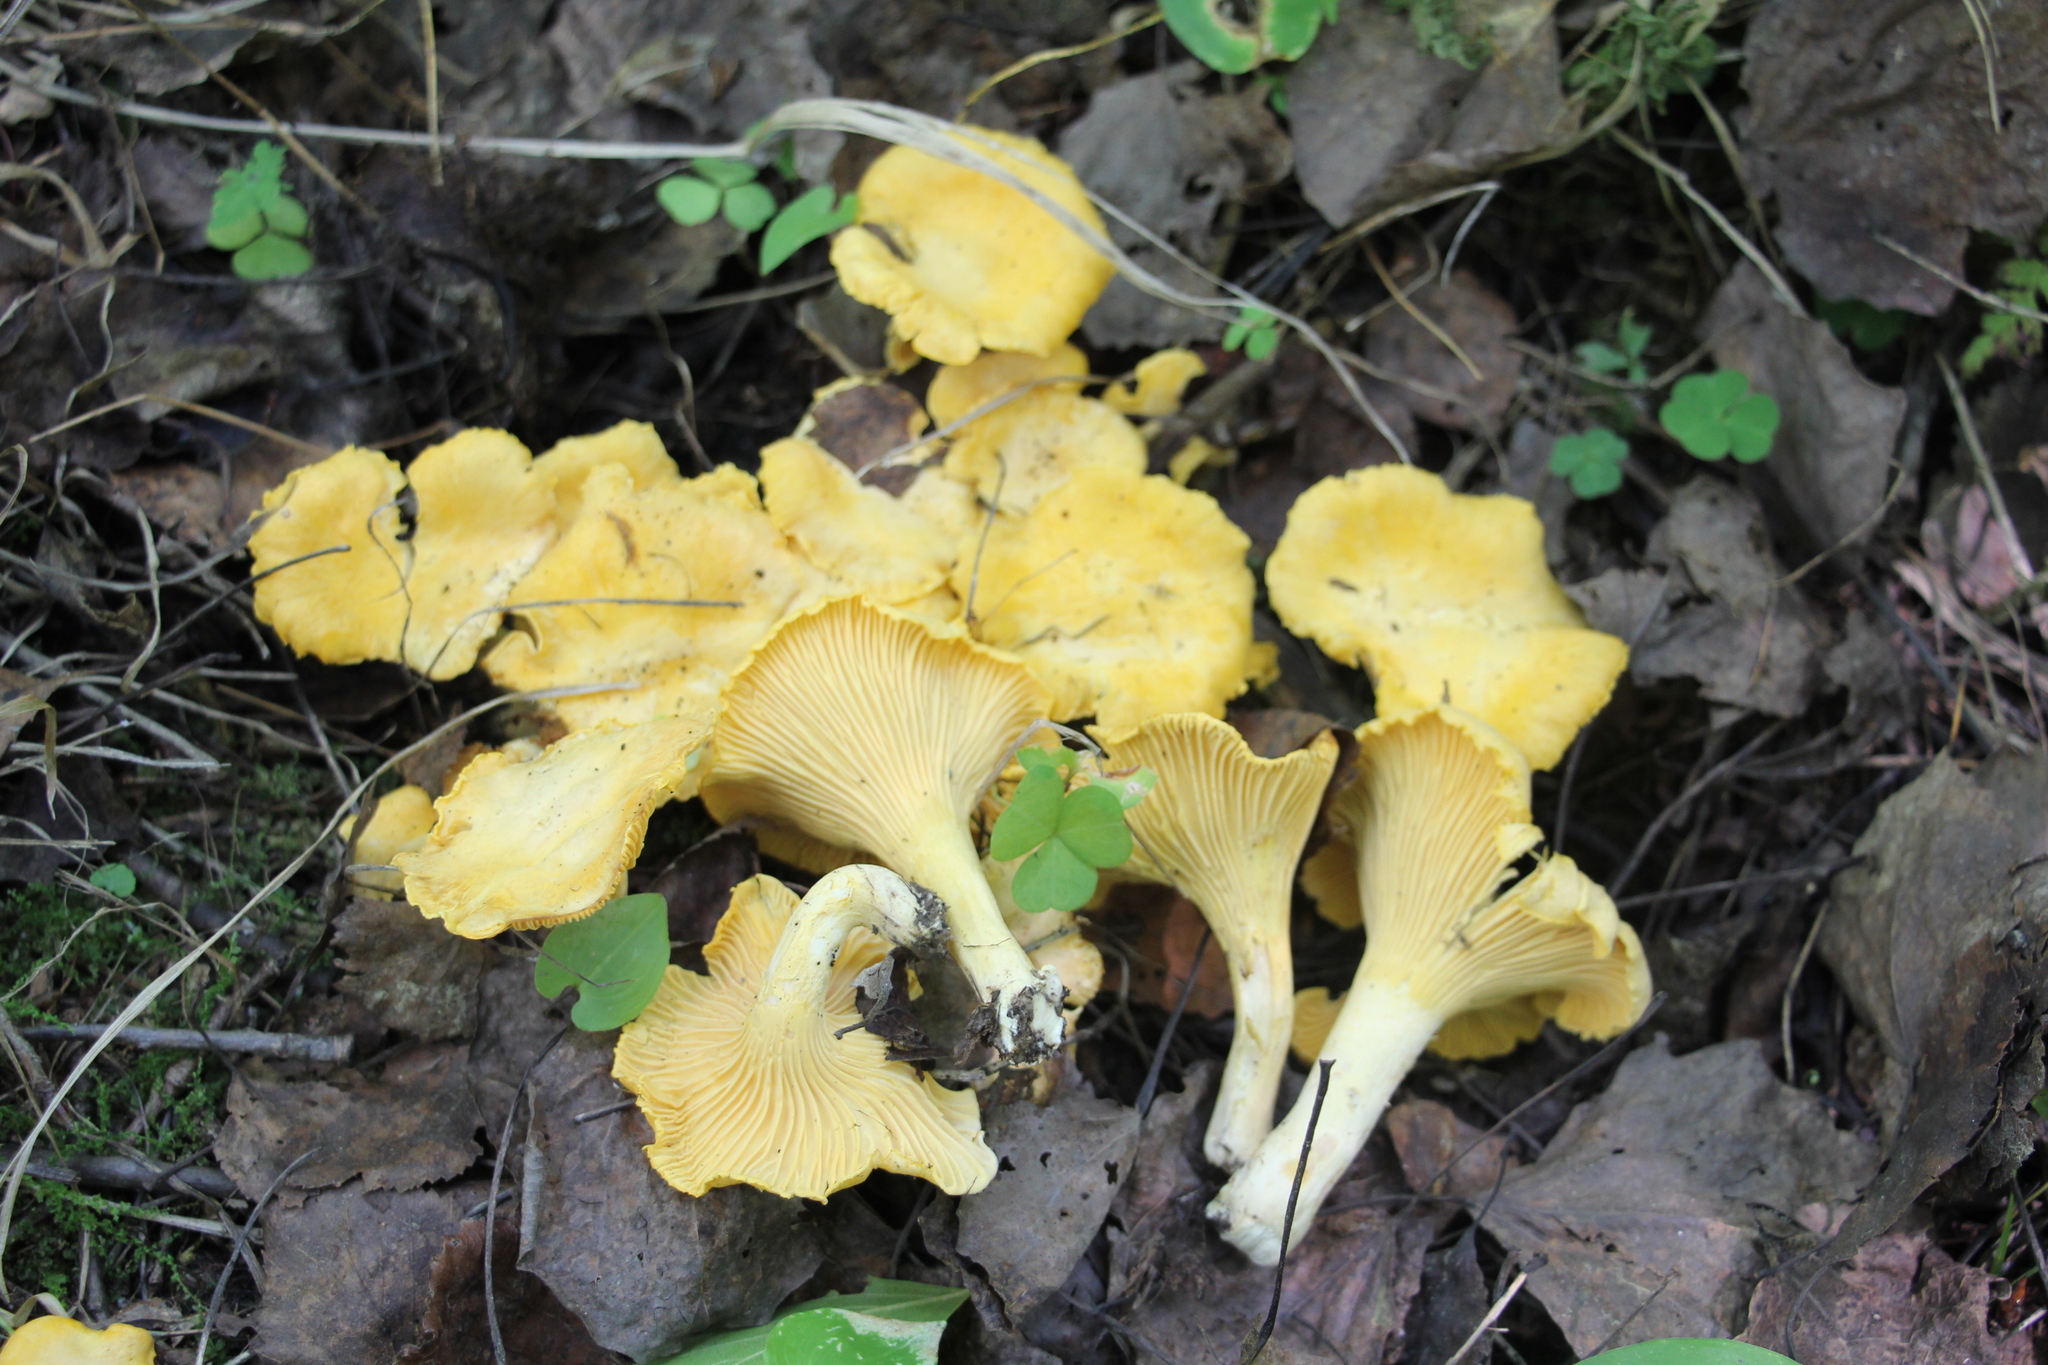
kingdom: Fungi
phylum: Basidiomycota
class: Agaricomycetes
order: Cantharellales
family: Hydnaceae
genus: Cantharellus
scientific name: Cantharellus cibarius
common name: Chanterelle
